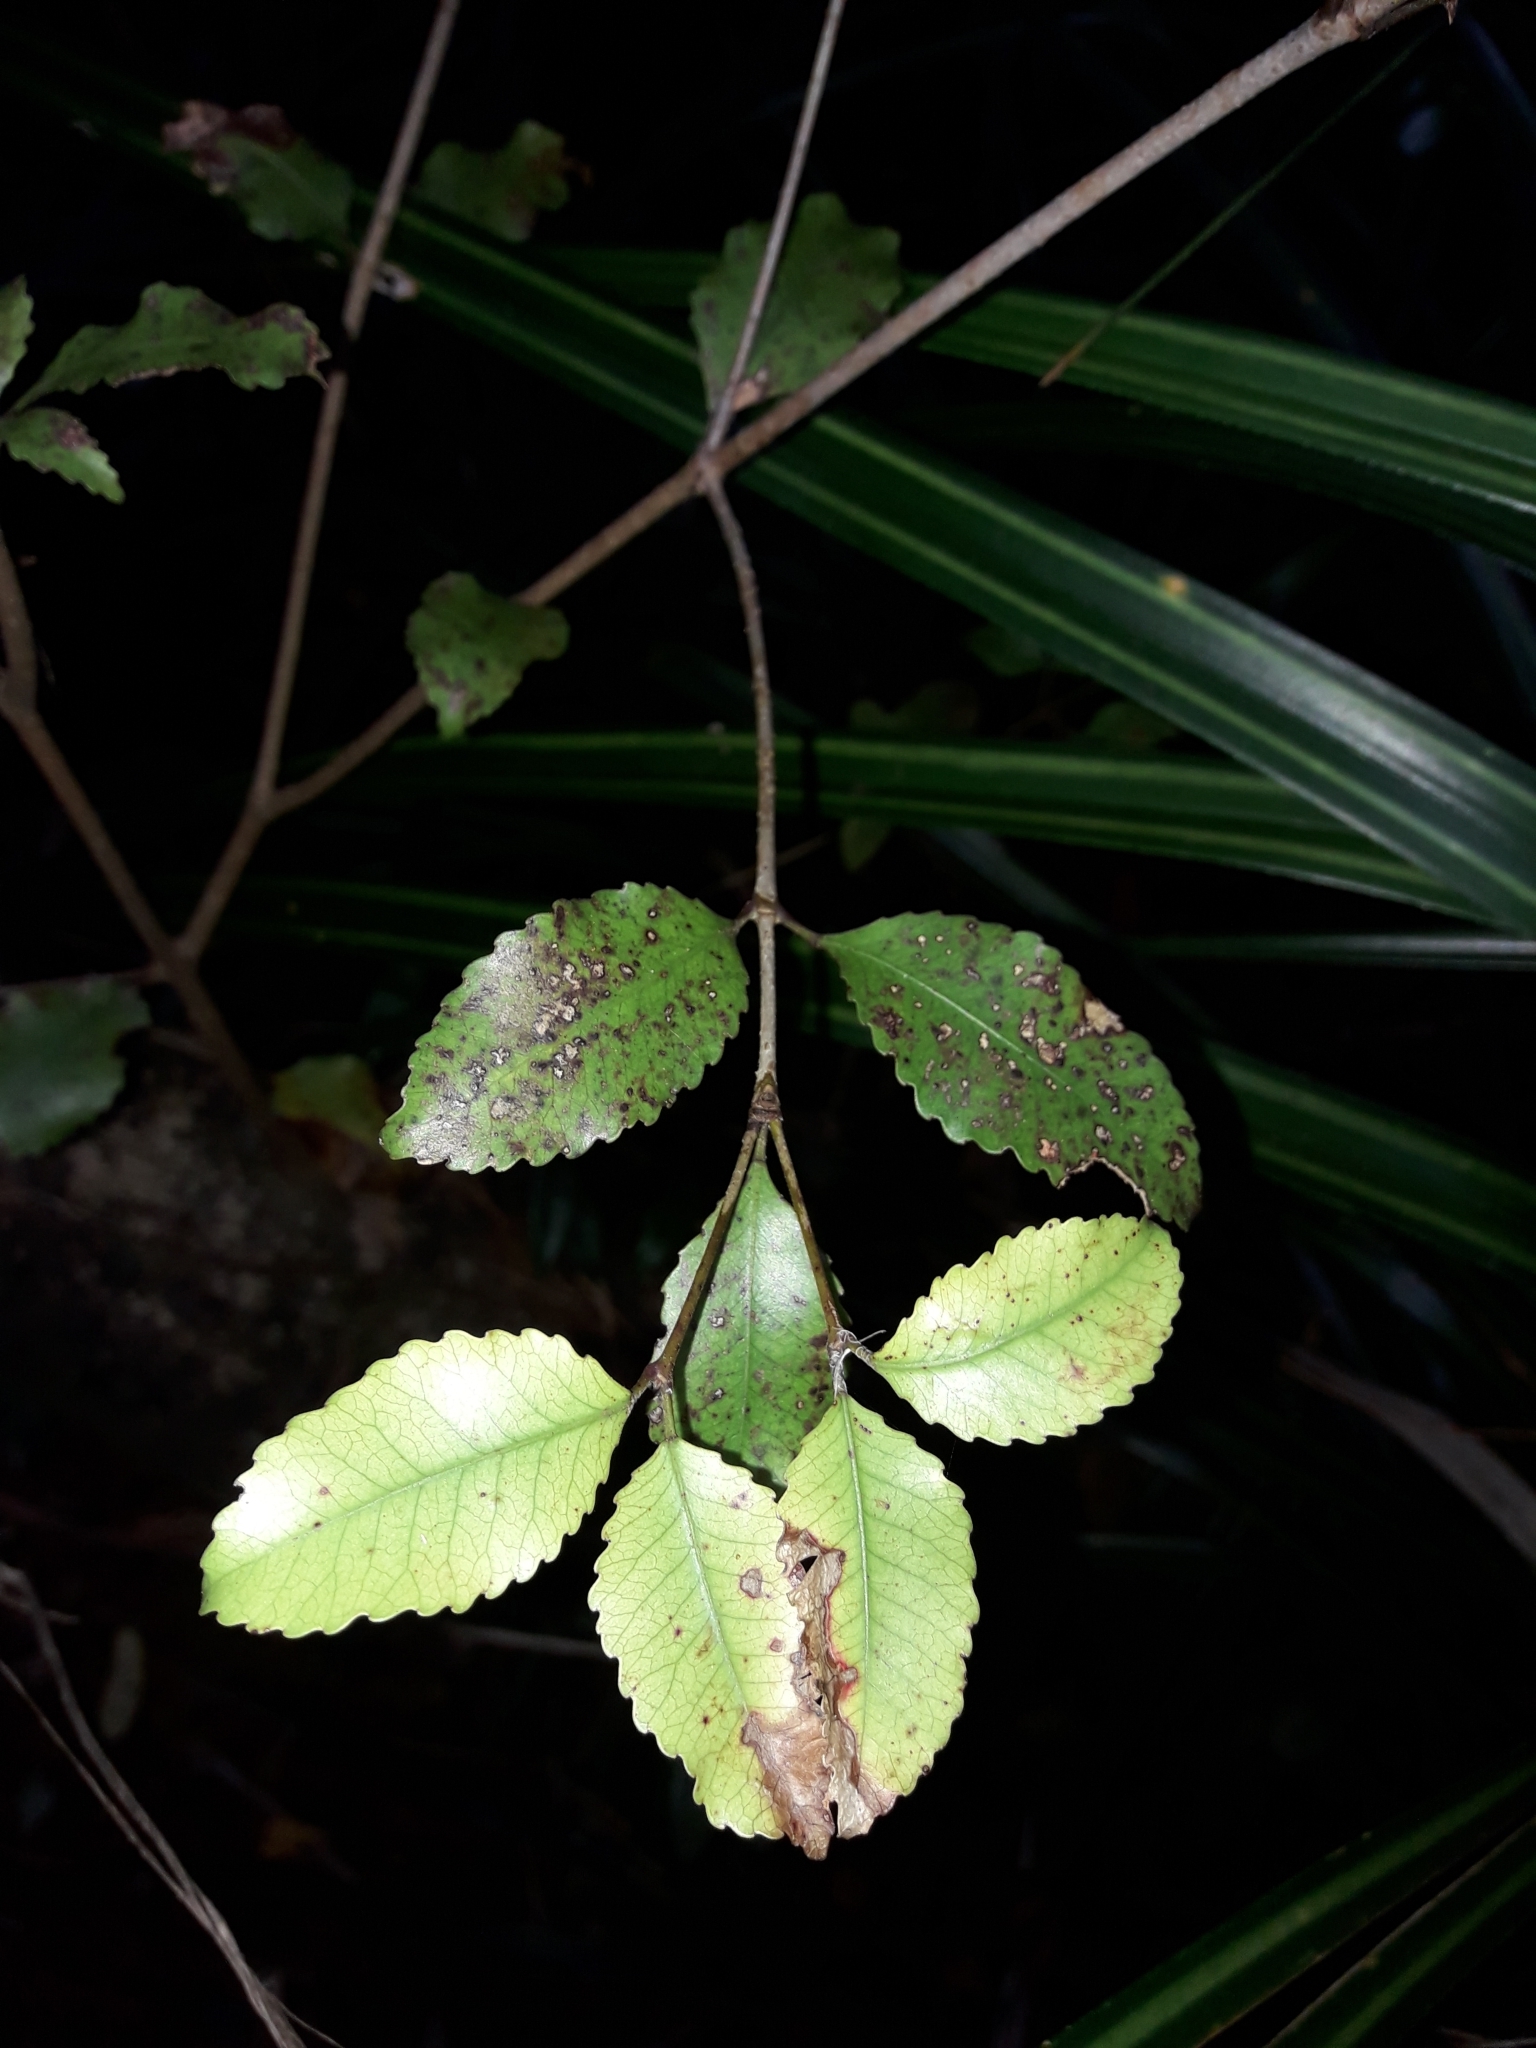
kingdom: Plantae
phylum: Tracheophyta
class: Magnoliopsida
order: Oxalidales
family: Cunoniaceae
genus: Pterophylla
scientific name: Pterophylla racemosa
